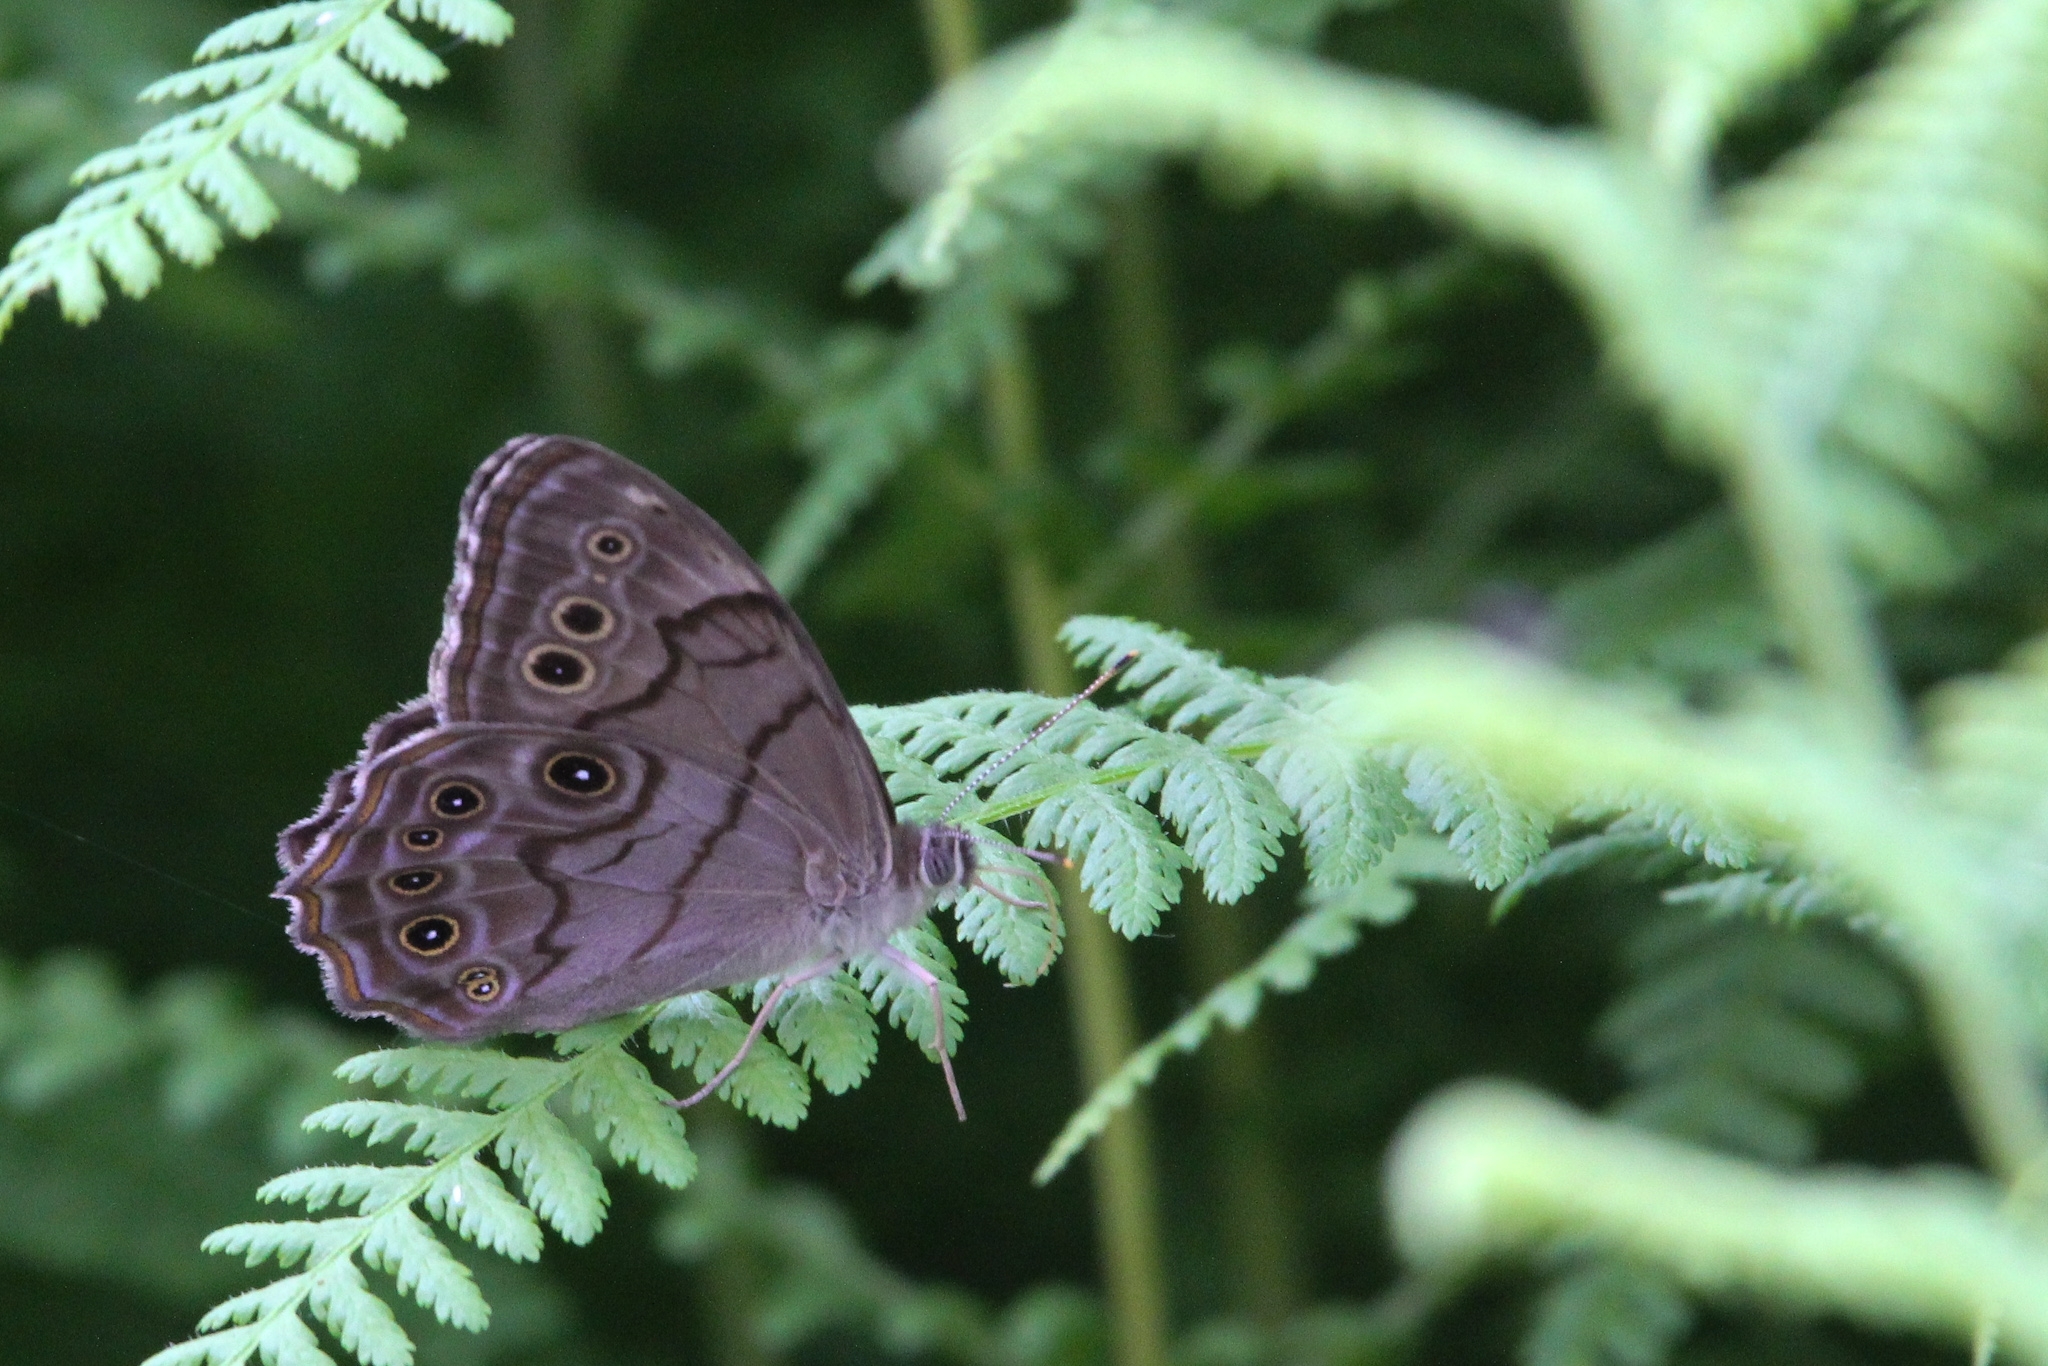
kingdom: Animalia
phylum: Arthropoda
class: Insecta
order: Lepidoptera
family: Nymphalidae
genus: Lethe
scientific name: Lethe anthedon
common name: Northern pearly-eye
